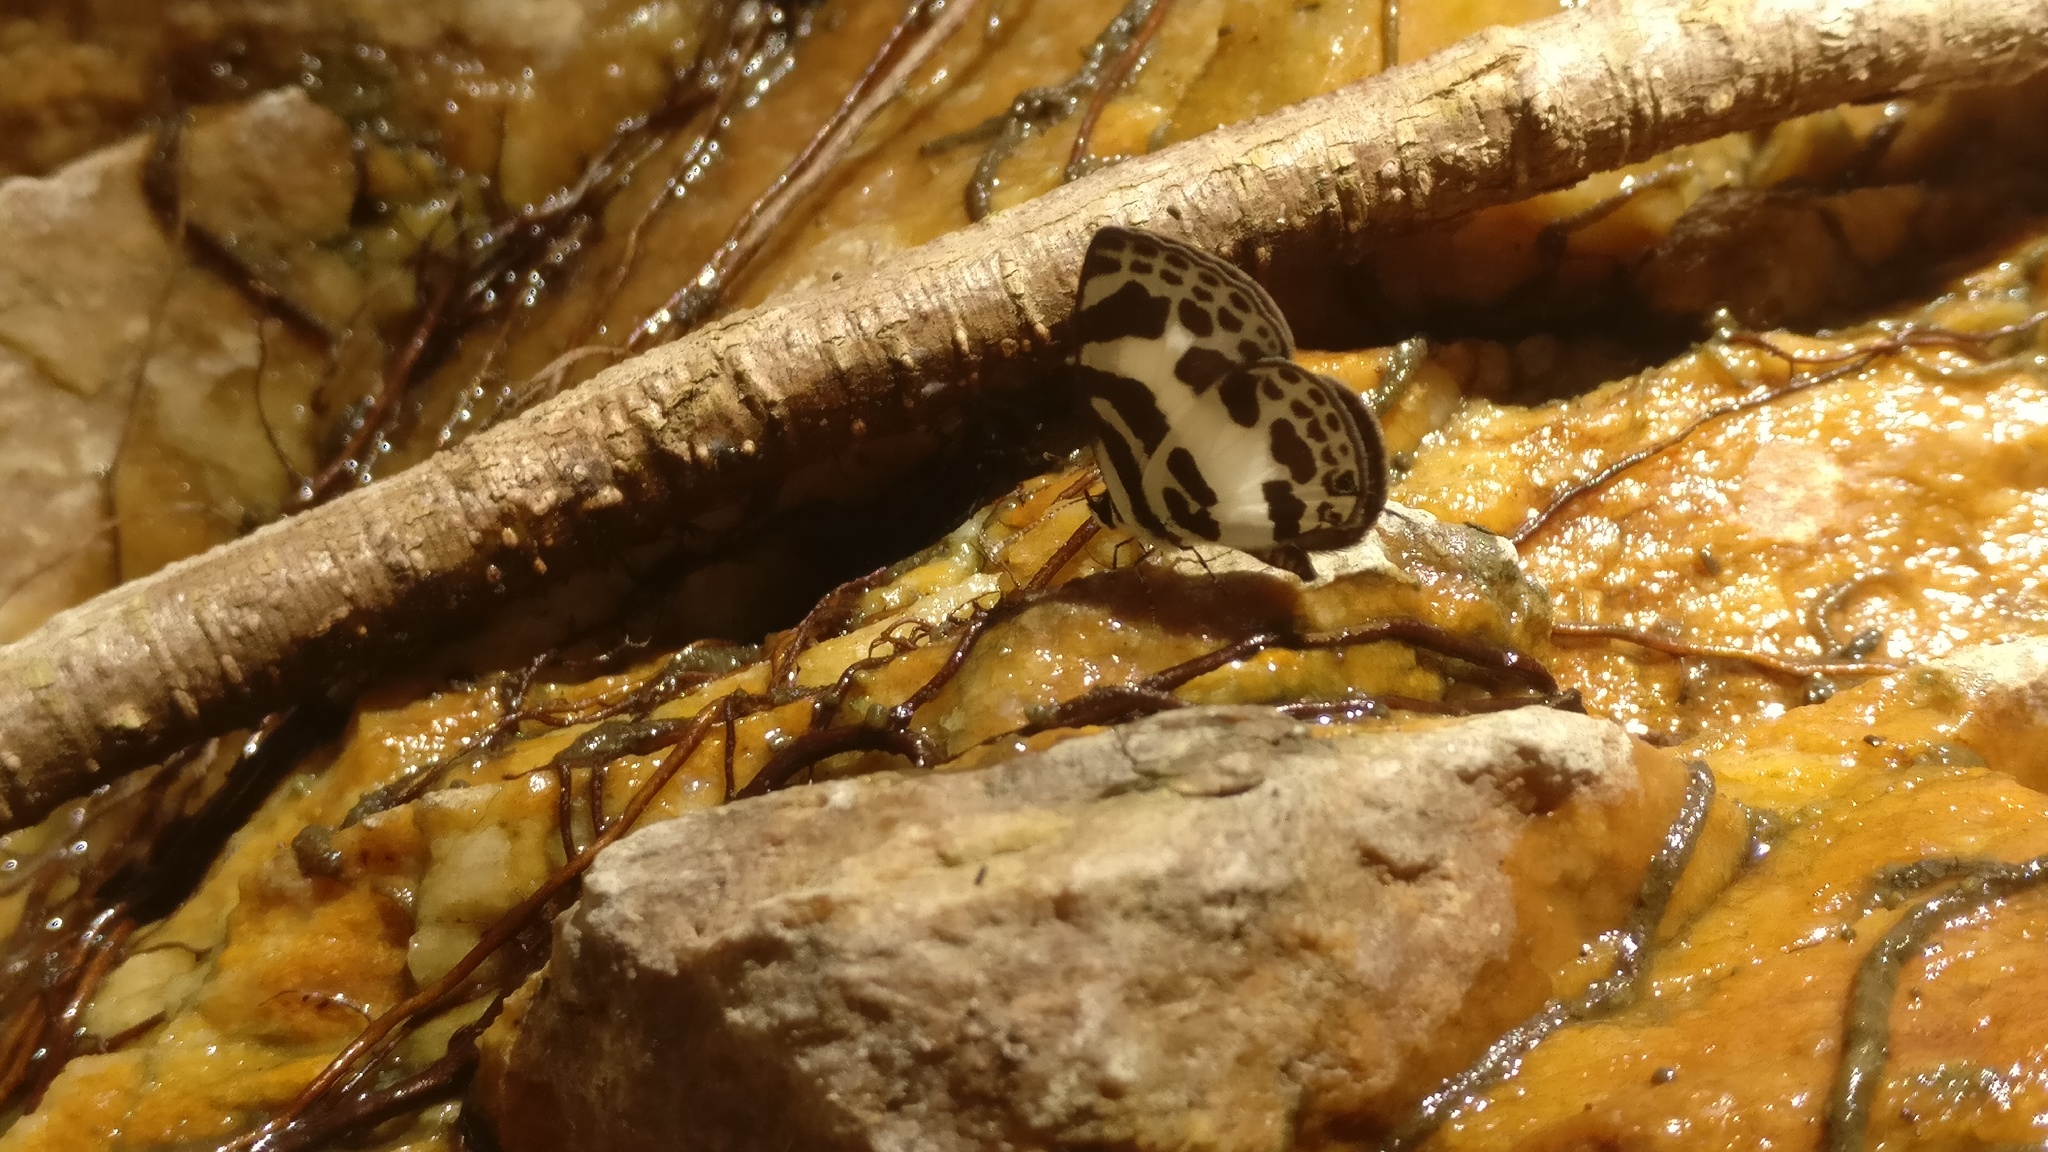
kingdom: Animalia
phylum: Arthropoda
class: Insecta
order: Lepidoptera
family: Lycaenidae
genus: Discolampa
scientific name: Discolampa ethion
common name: Banded blue pierrot
